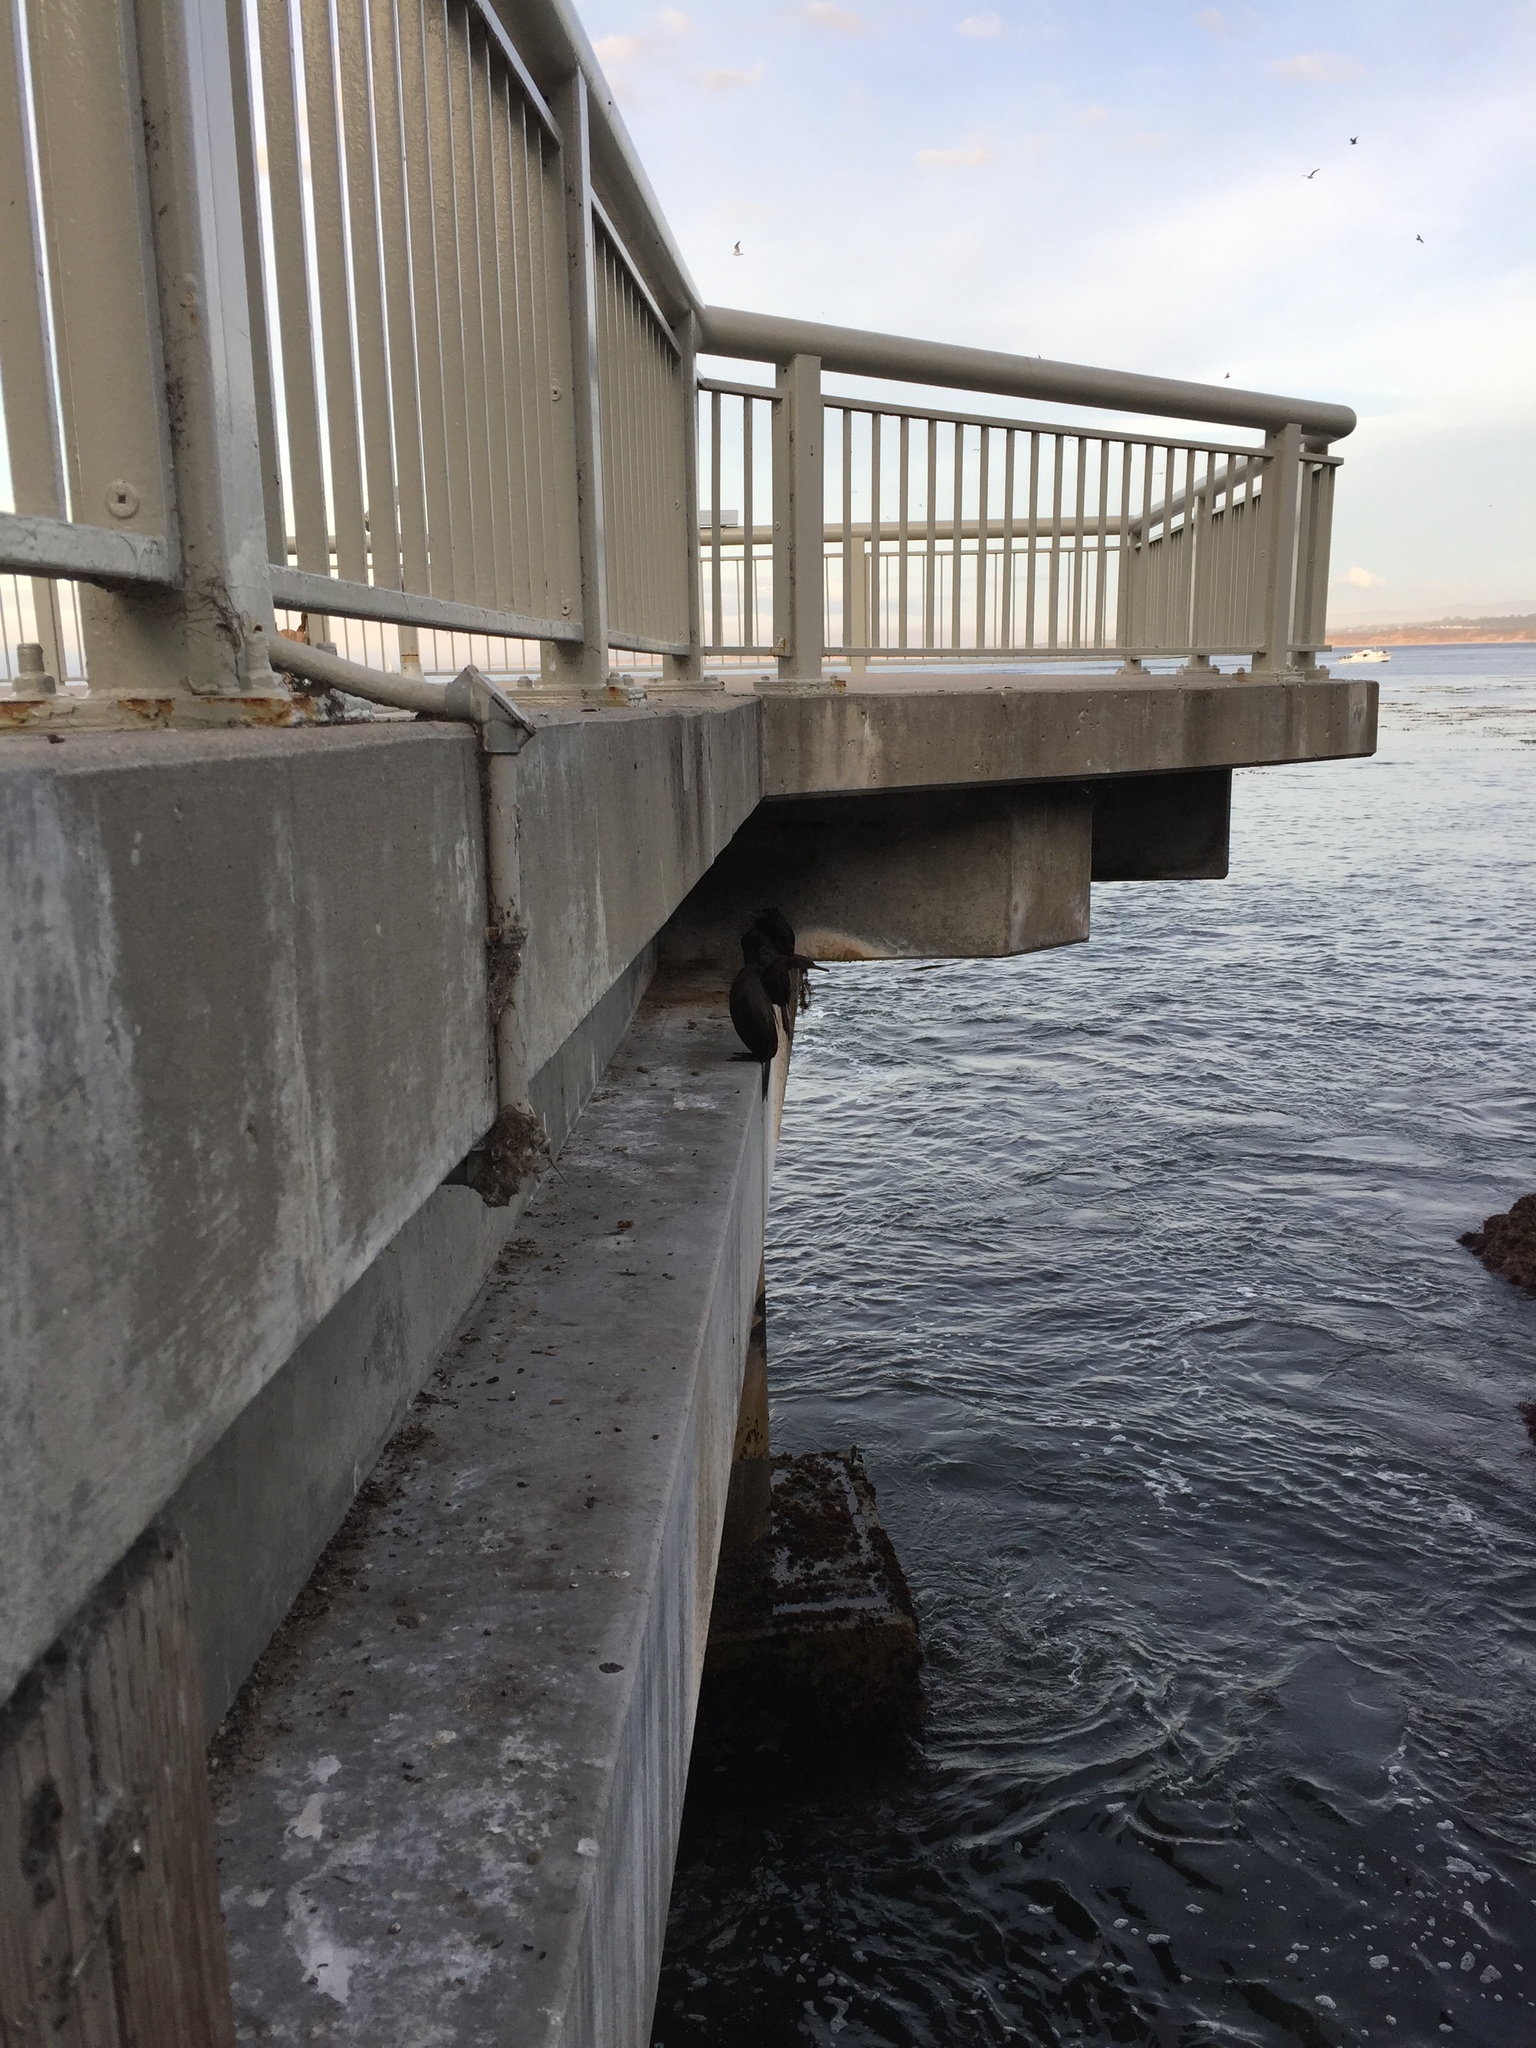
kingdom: Animalia
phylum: Chordata
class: Aves
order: Suliformes
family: Phalacrocoracidae
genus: Phalacrocorax
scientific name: Phalacrocorax pelagicus
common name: Pelagic cormorant
